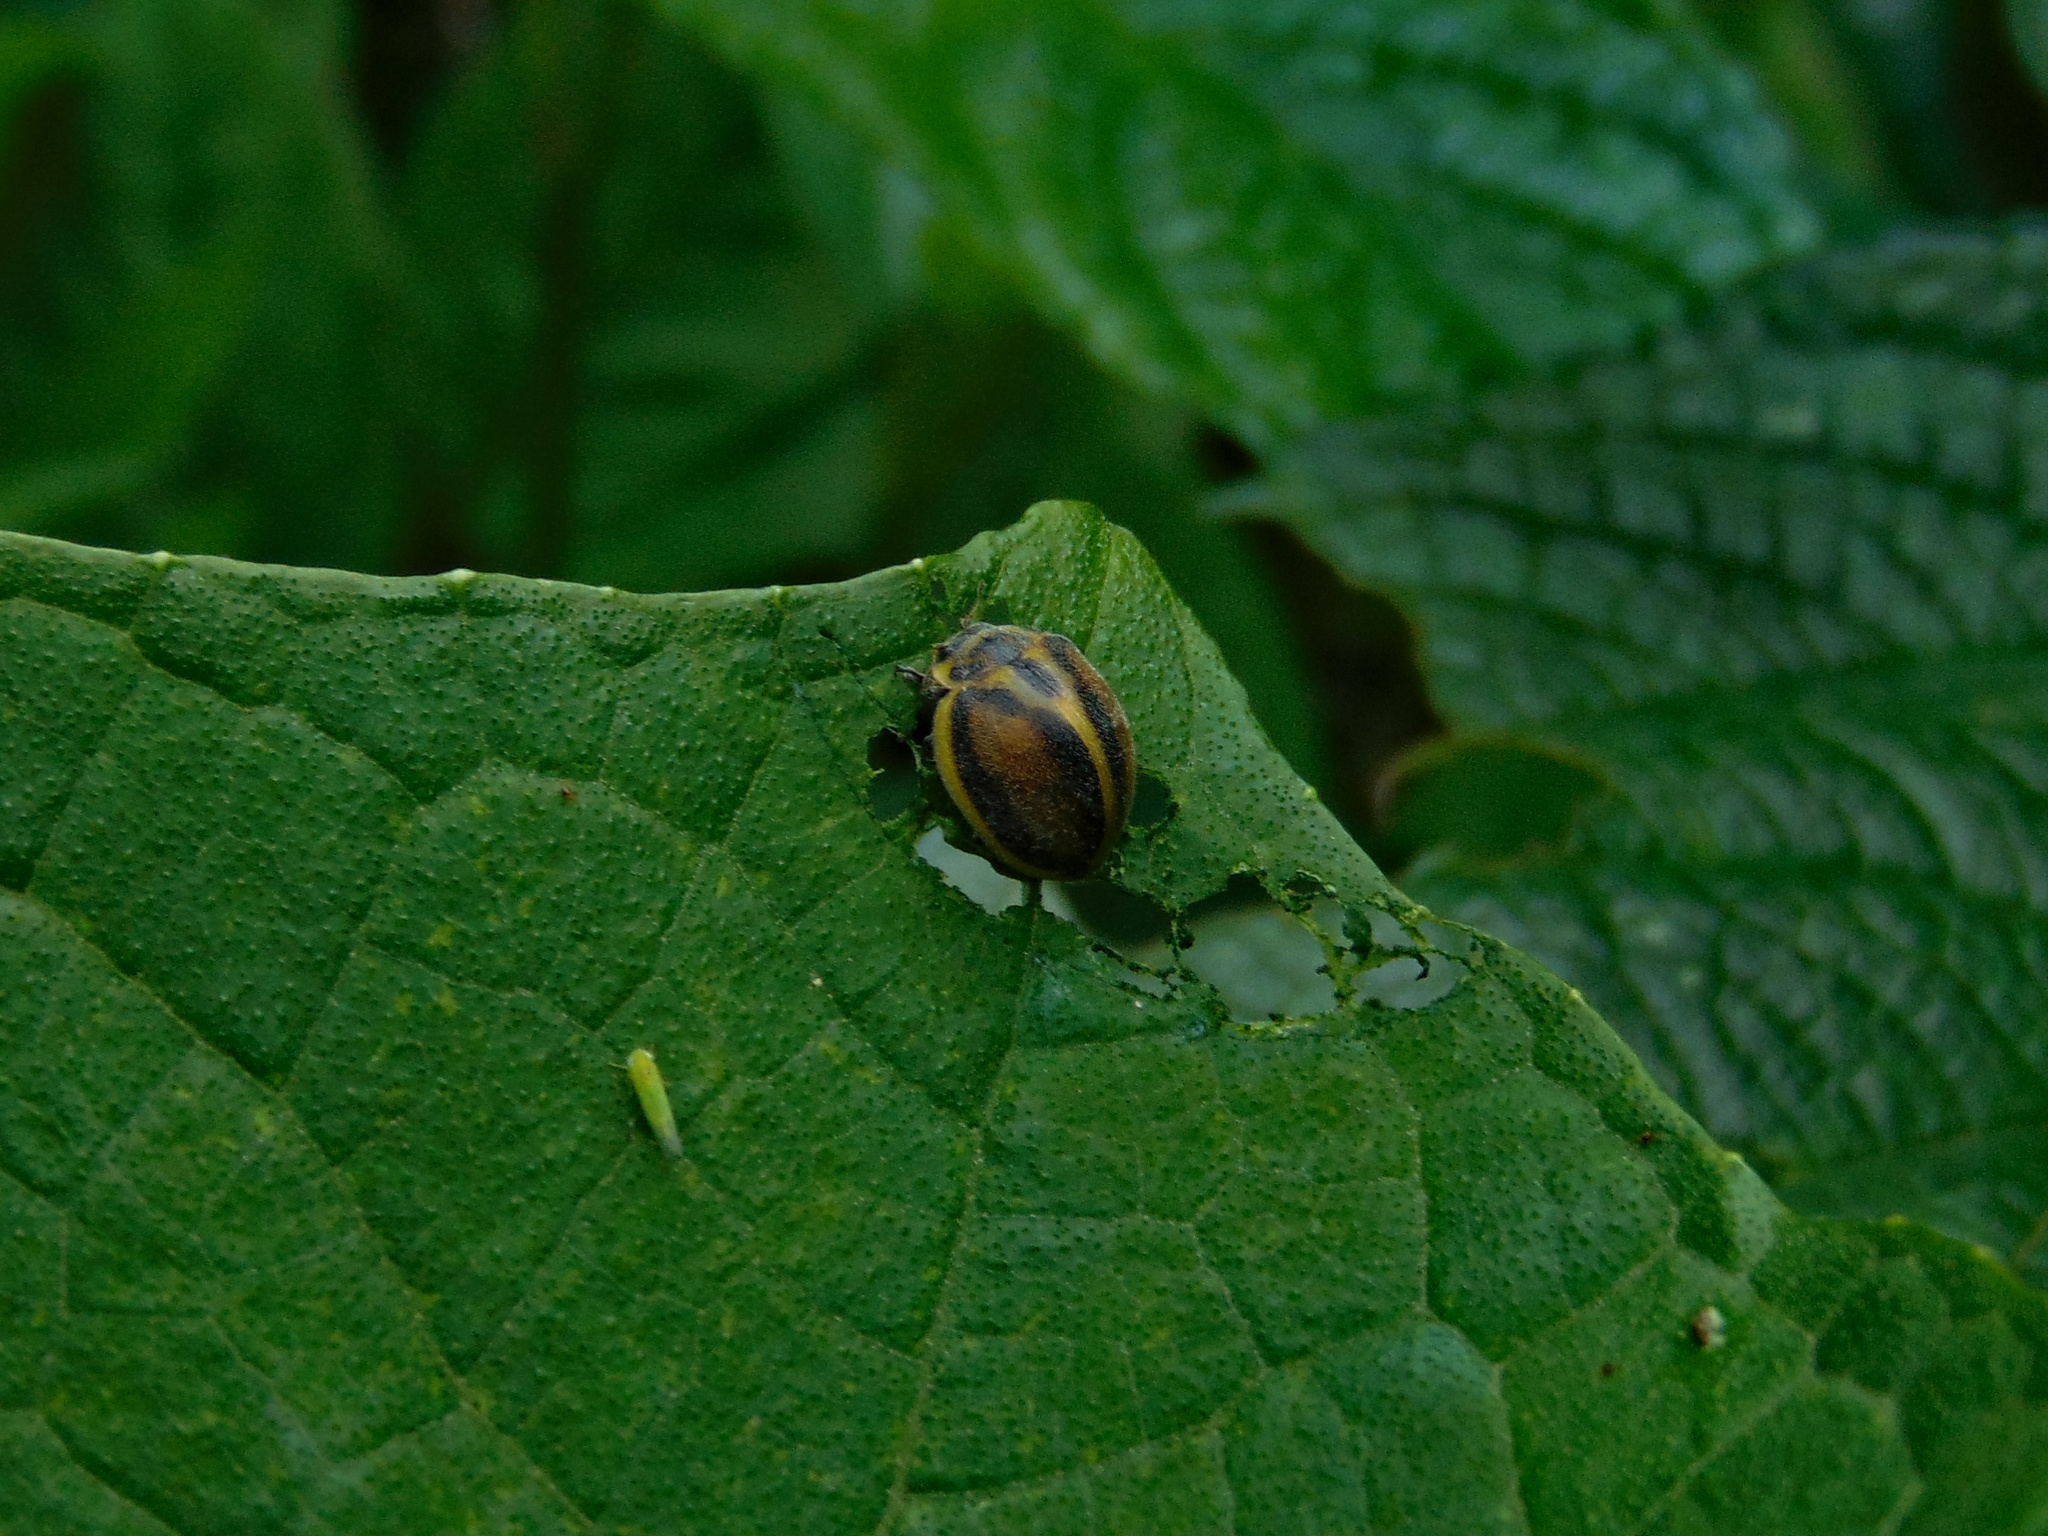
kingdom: Animalia
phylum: Arthropoda
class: Insecta
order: Coleoptera
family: Coccinellidae
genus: Epilachna
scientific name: Epilachna
